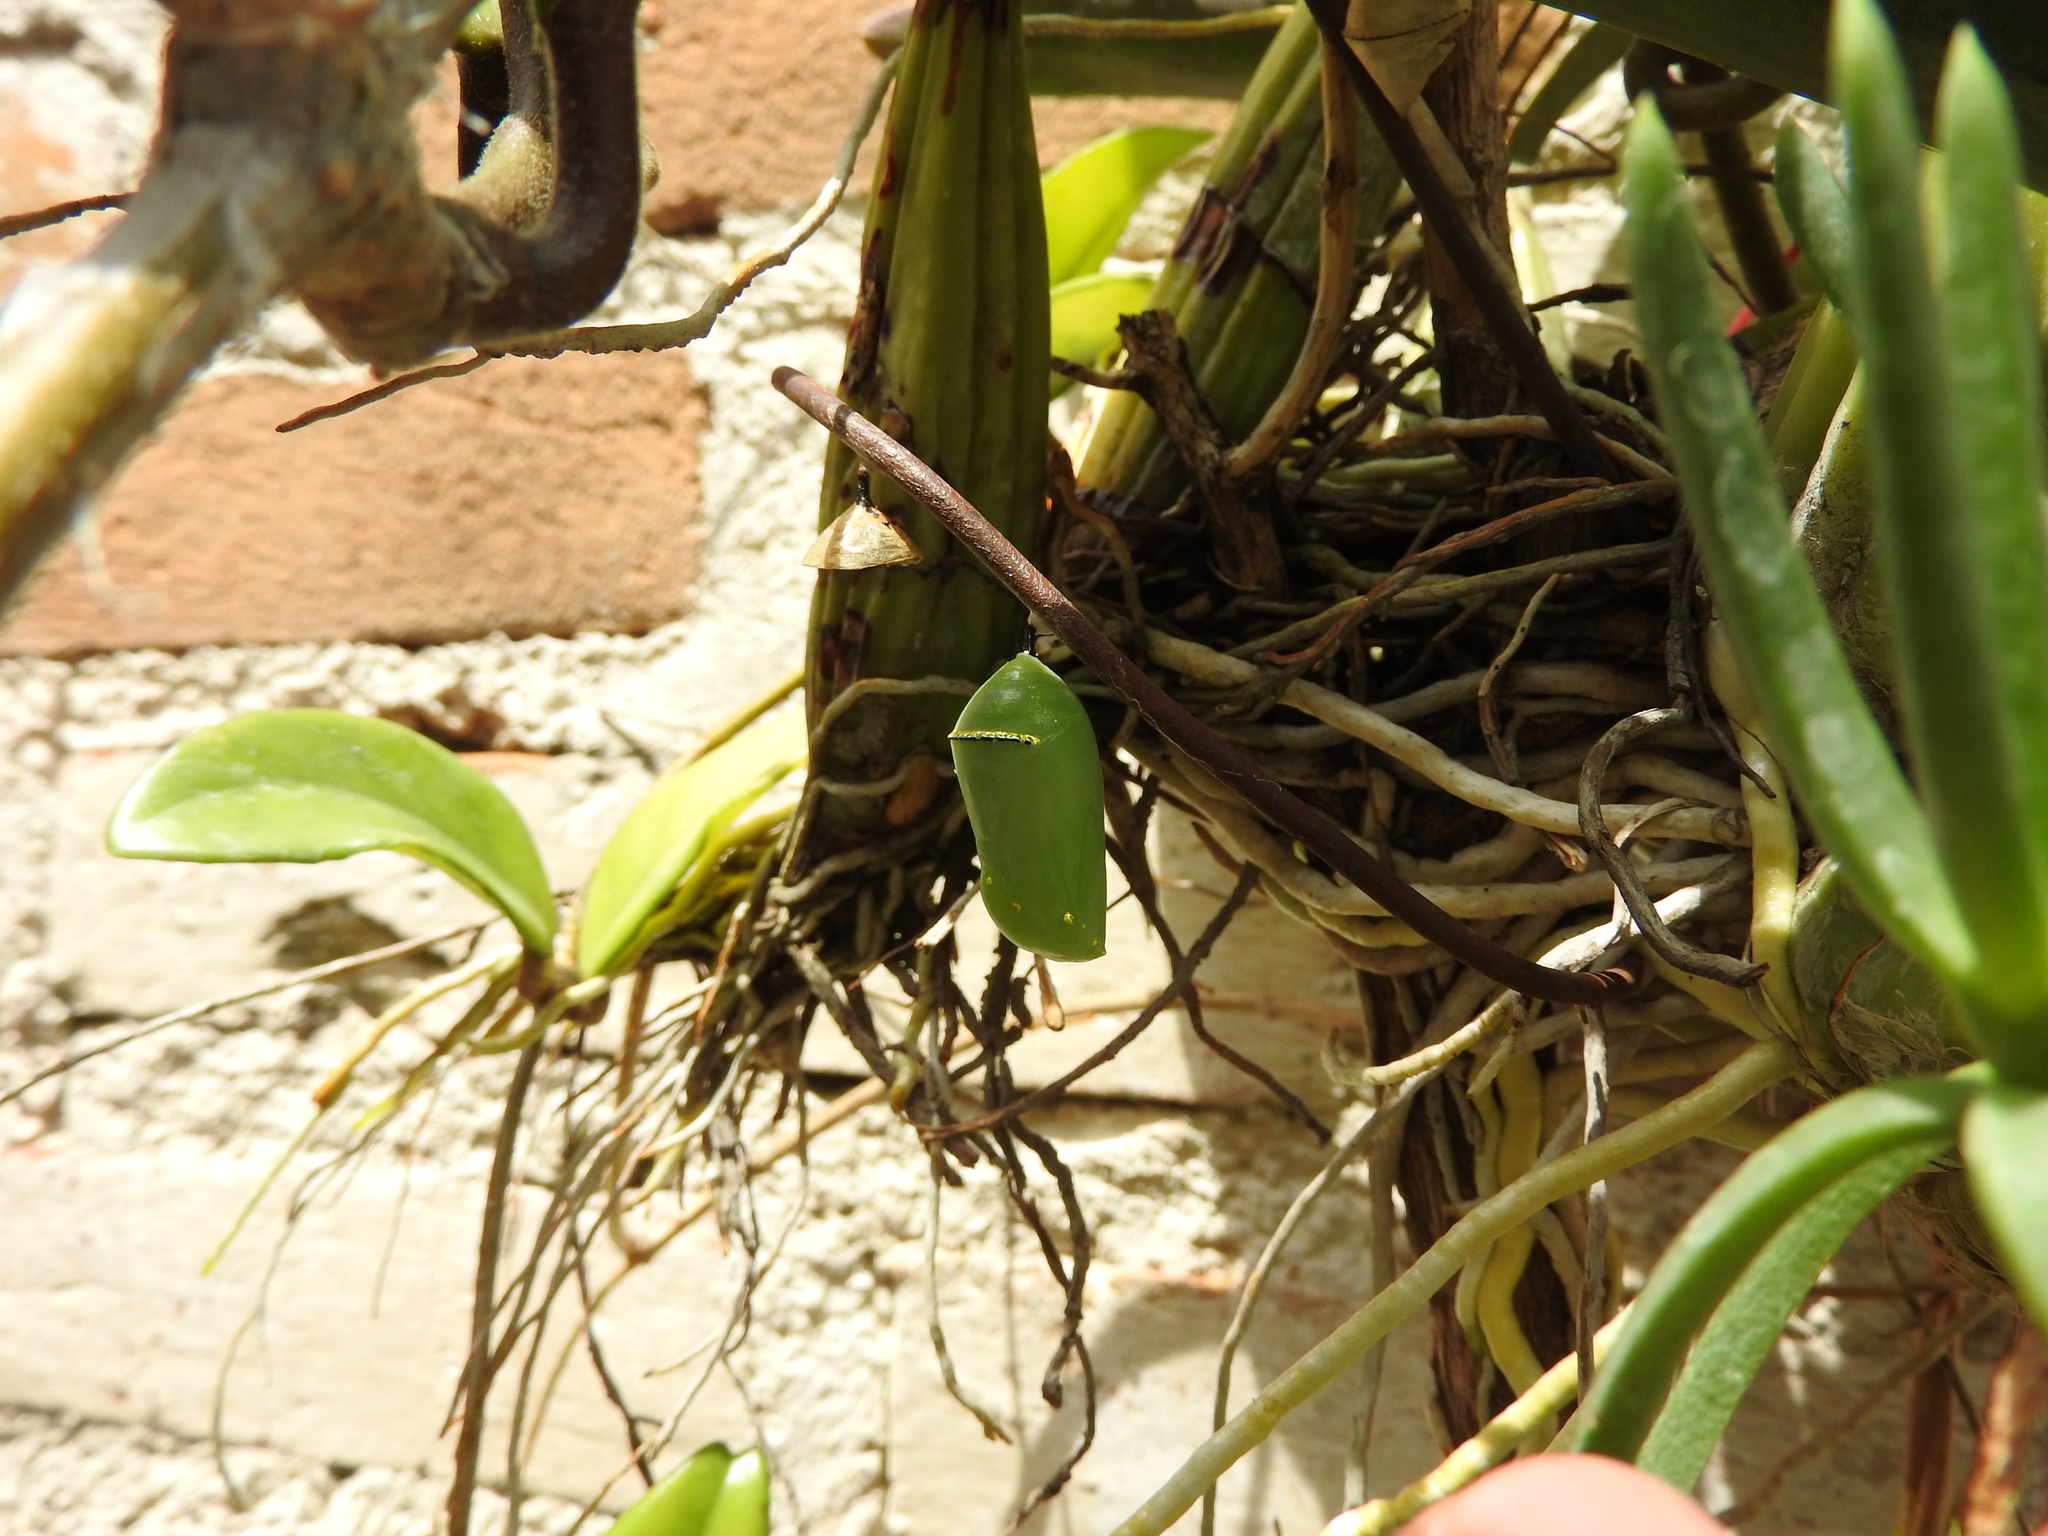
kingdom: Animalia
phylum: Arthropoda
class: Insecta
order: Lepidoptera
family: Nymphalidae
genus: Danaus
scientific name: Danaus plexippus
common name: Monarch
